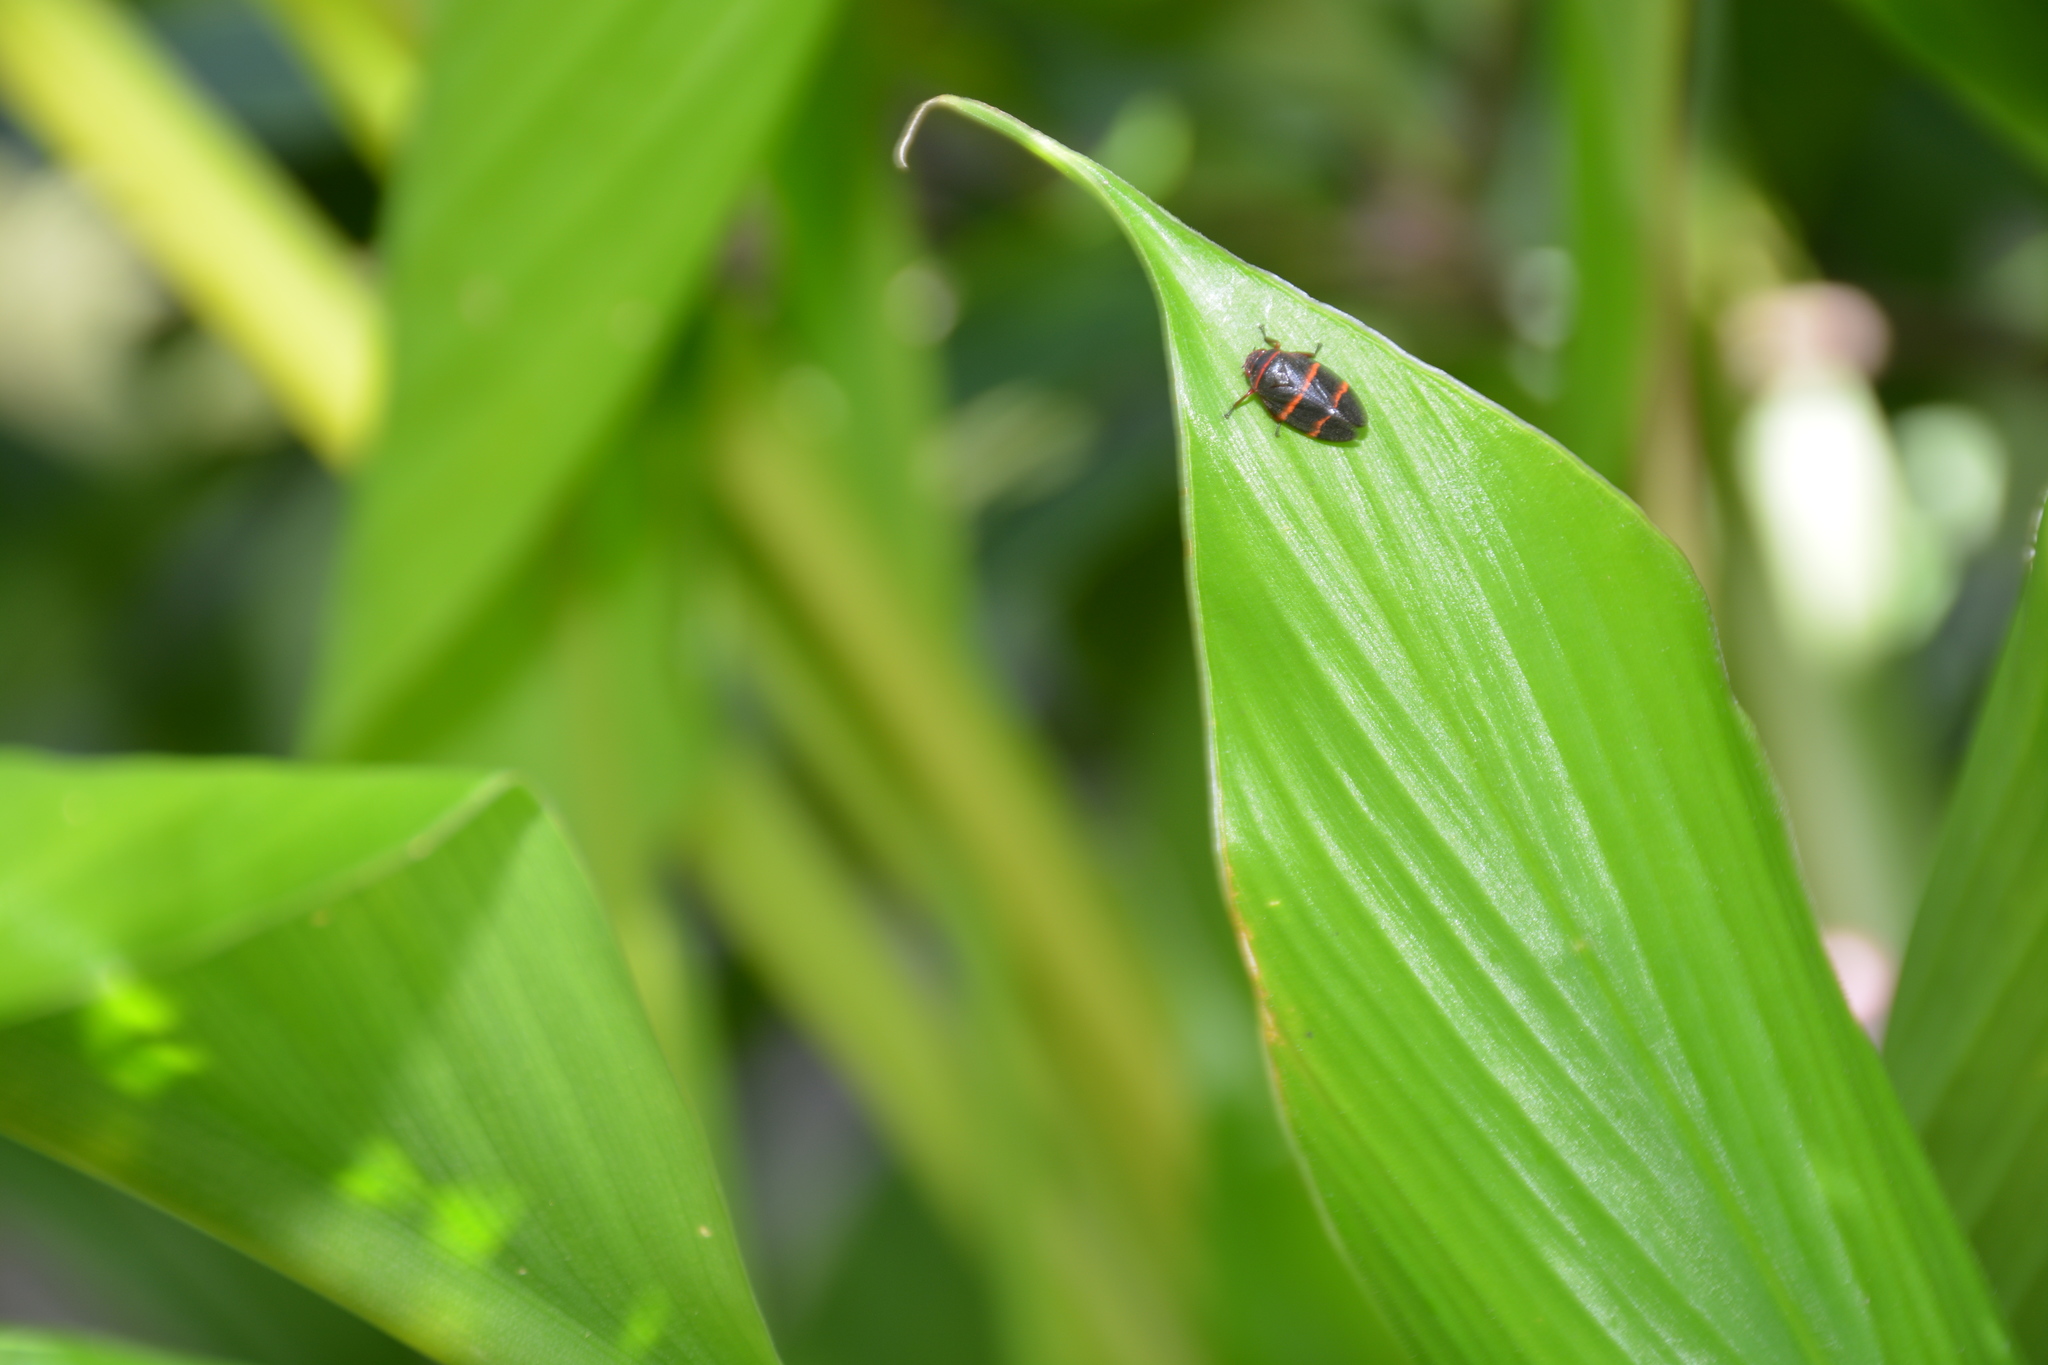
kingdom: Animalia
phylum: Arthropoda
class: Insecta
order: Hemiptera
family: Cercopidae
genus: Prosapia
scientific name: Prosapia bicincta
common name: Twolined spittlebug
